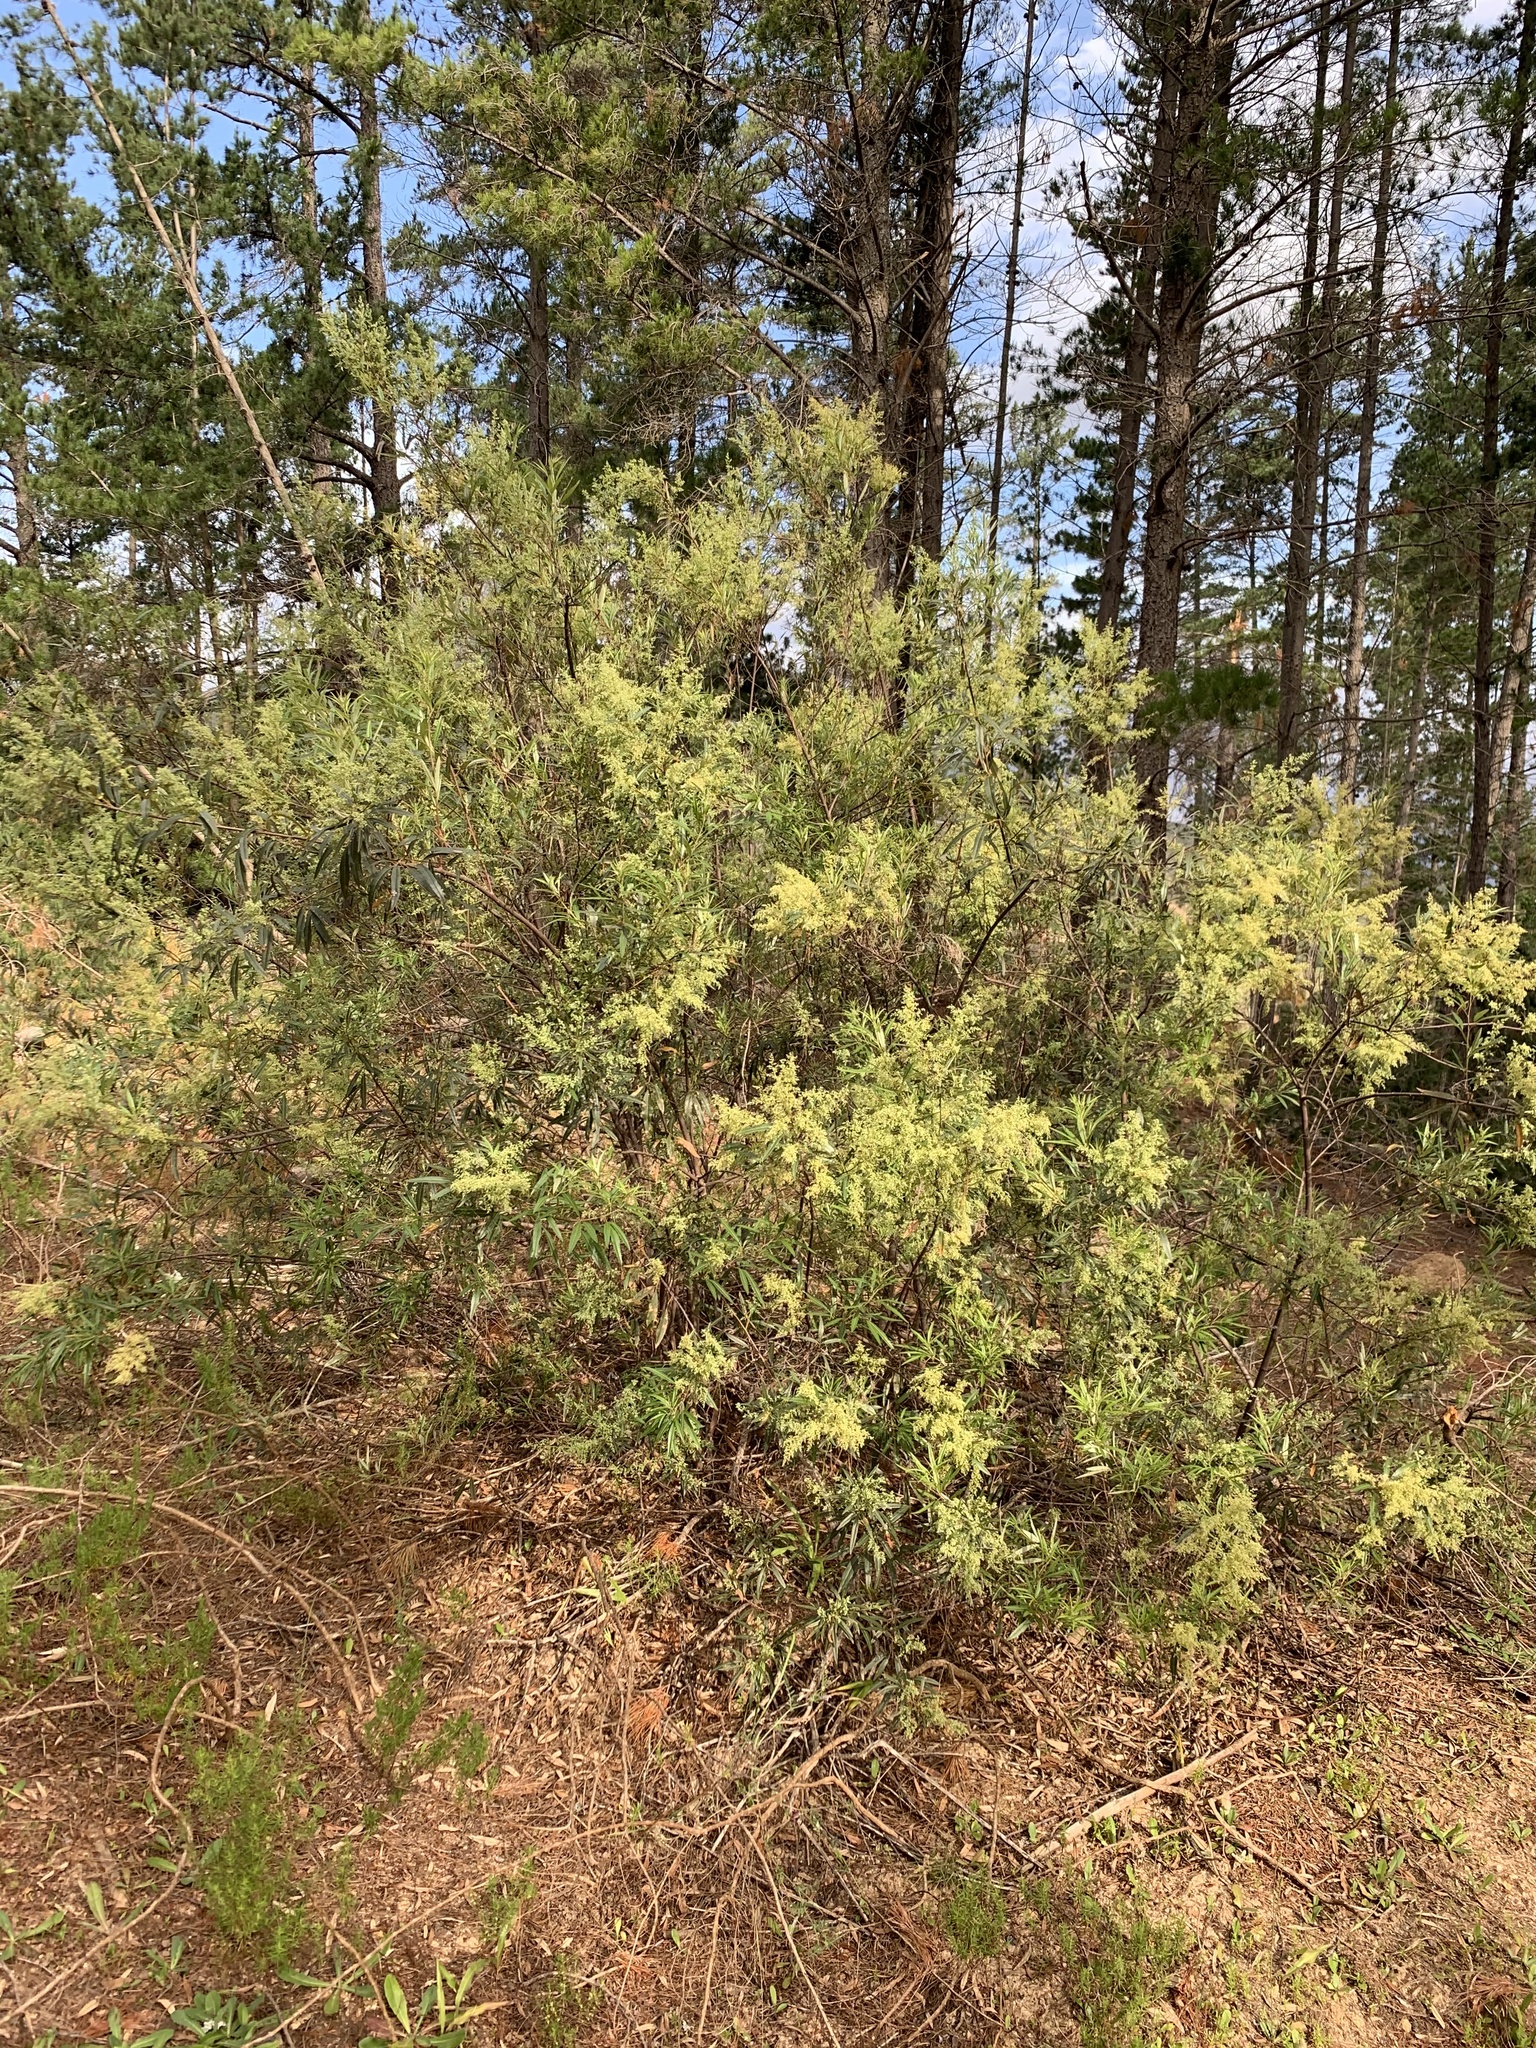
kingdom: Plantae
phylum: Tracheophyta
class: Magnoliopsida
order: Sapindales
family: Anacardiaceae
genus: Searsia
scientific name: Searsia angustifolia
